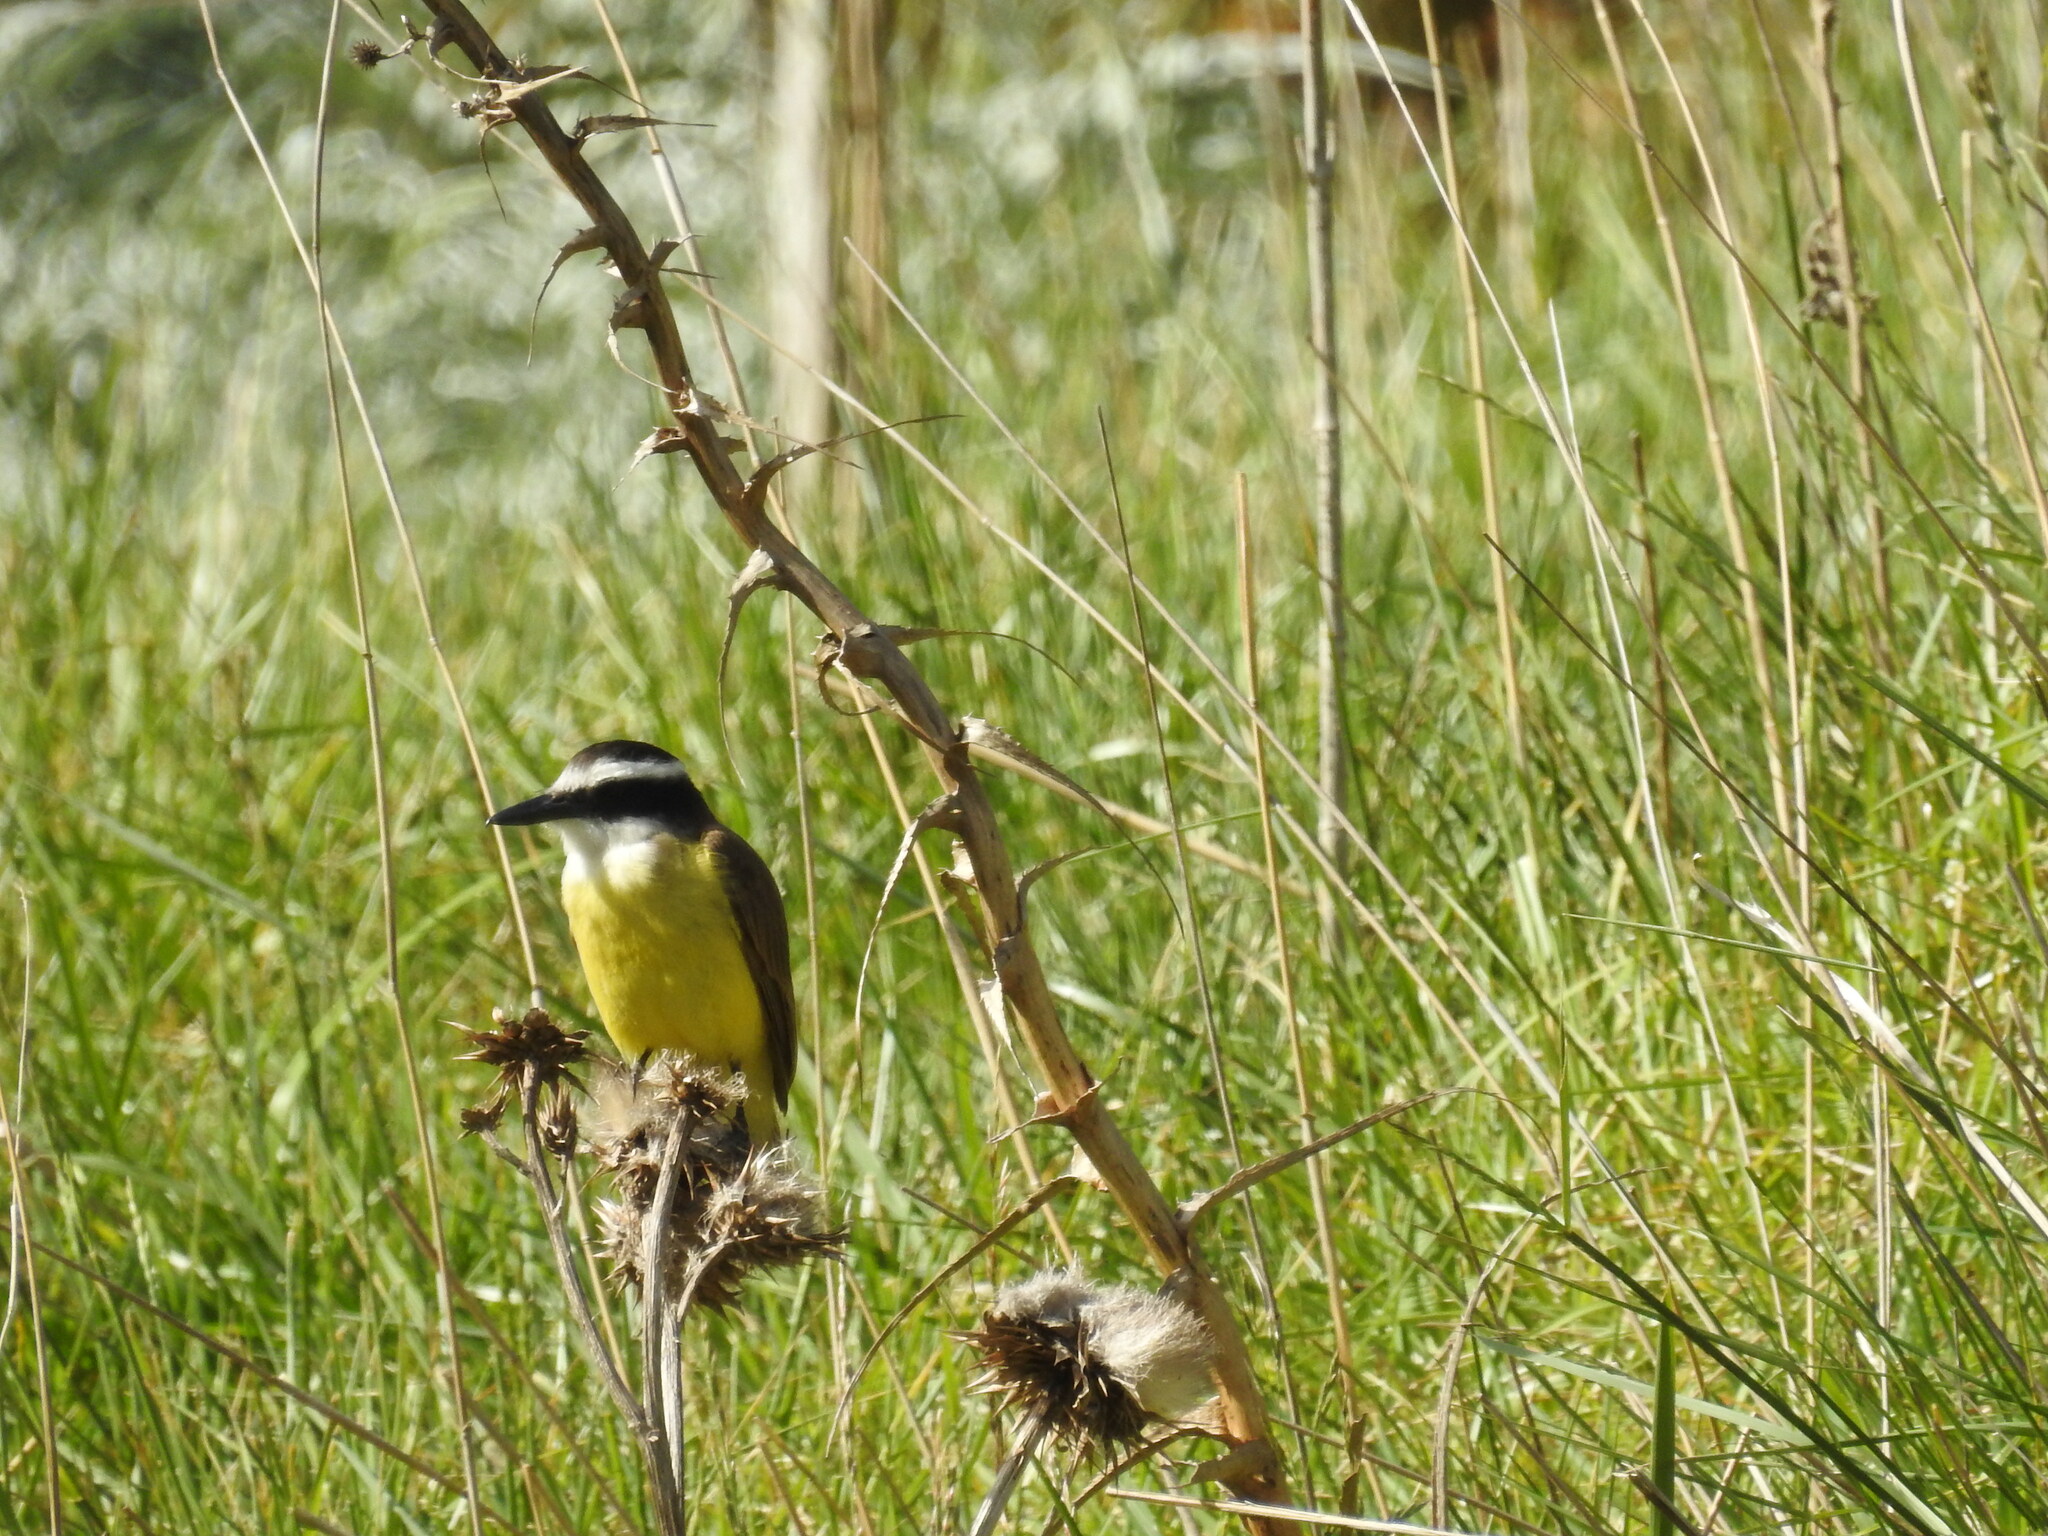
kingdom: Animalia
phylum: Chordata
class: Aves
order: Passeriformes
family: Tyrannidae
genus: Pitangus
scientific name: Pitangus sulphuratus
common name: Great kiskadee
